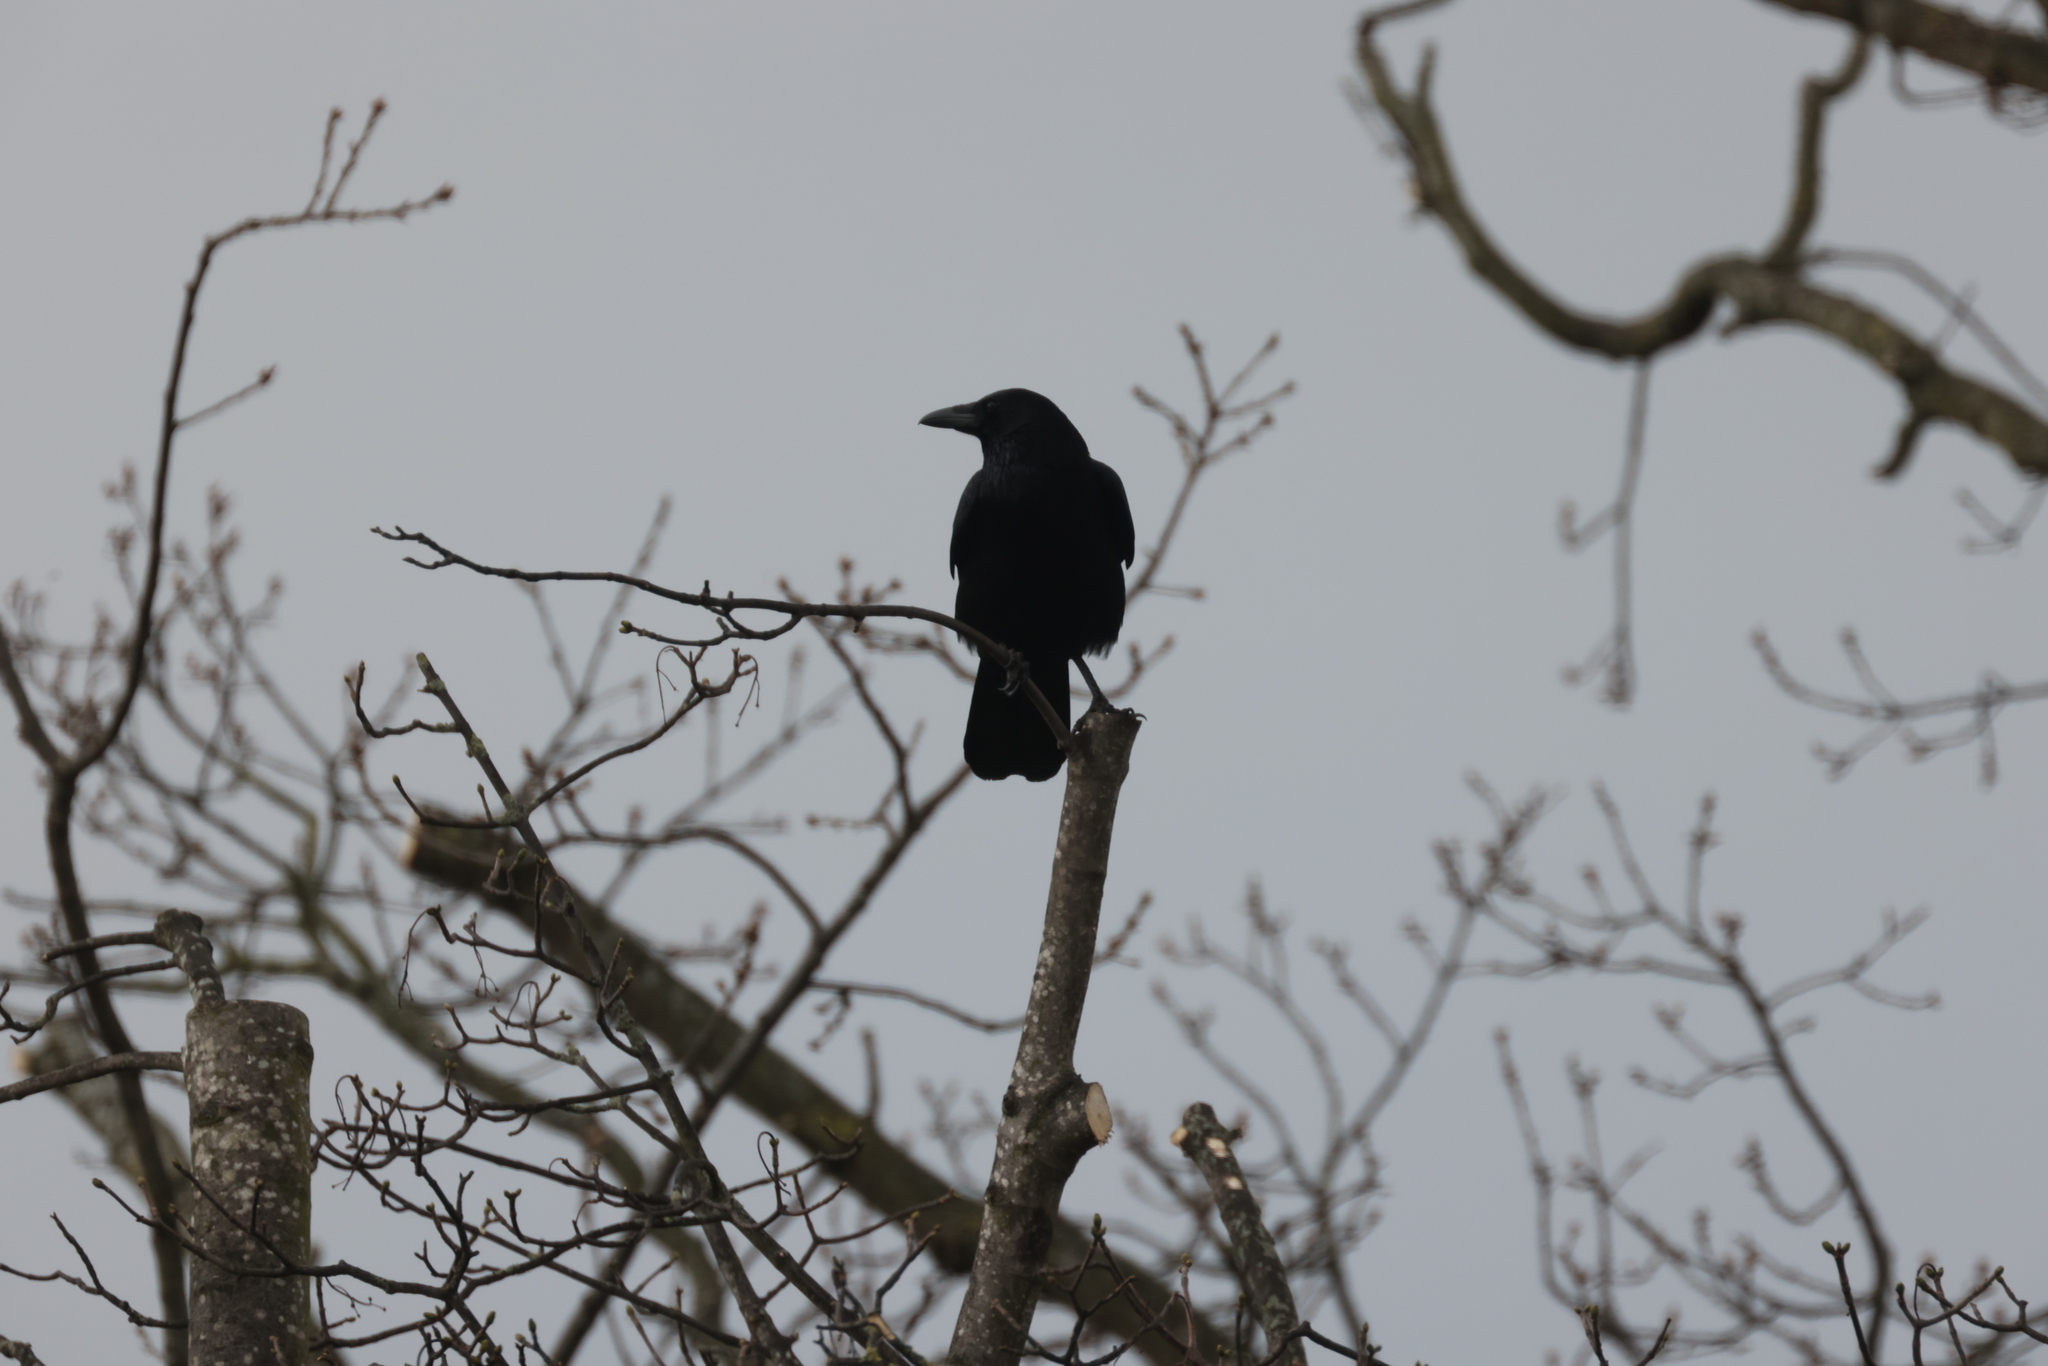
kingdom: Animalia
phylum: Chordata
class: Aves
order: Passeriformes
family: Corvidae
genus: Corvus
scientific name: Corvus corone
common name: Carrion crow
